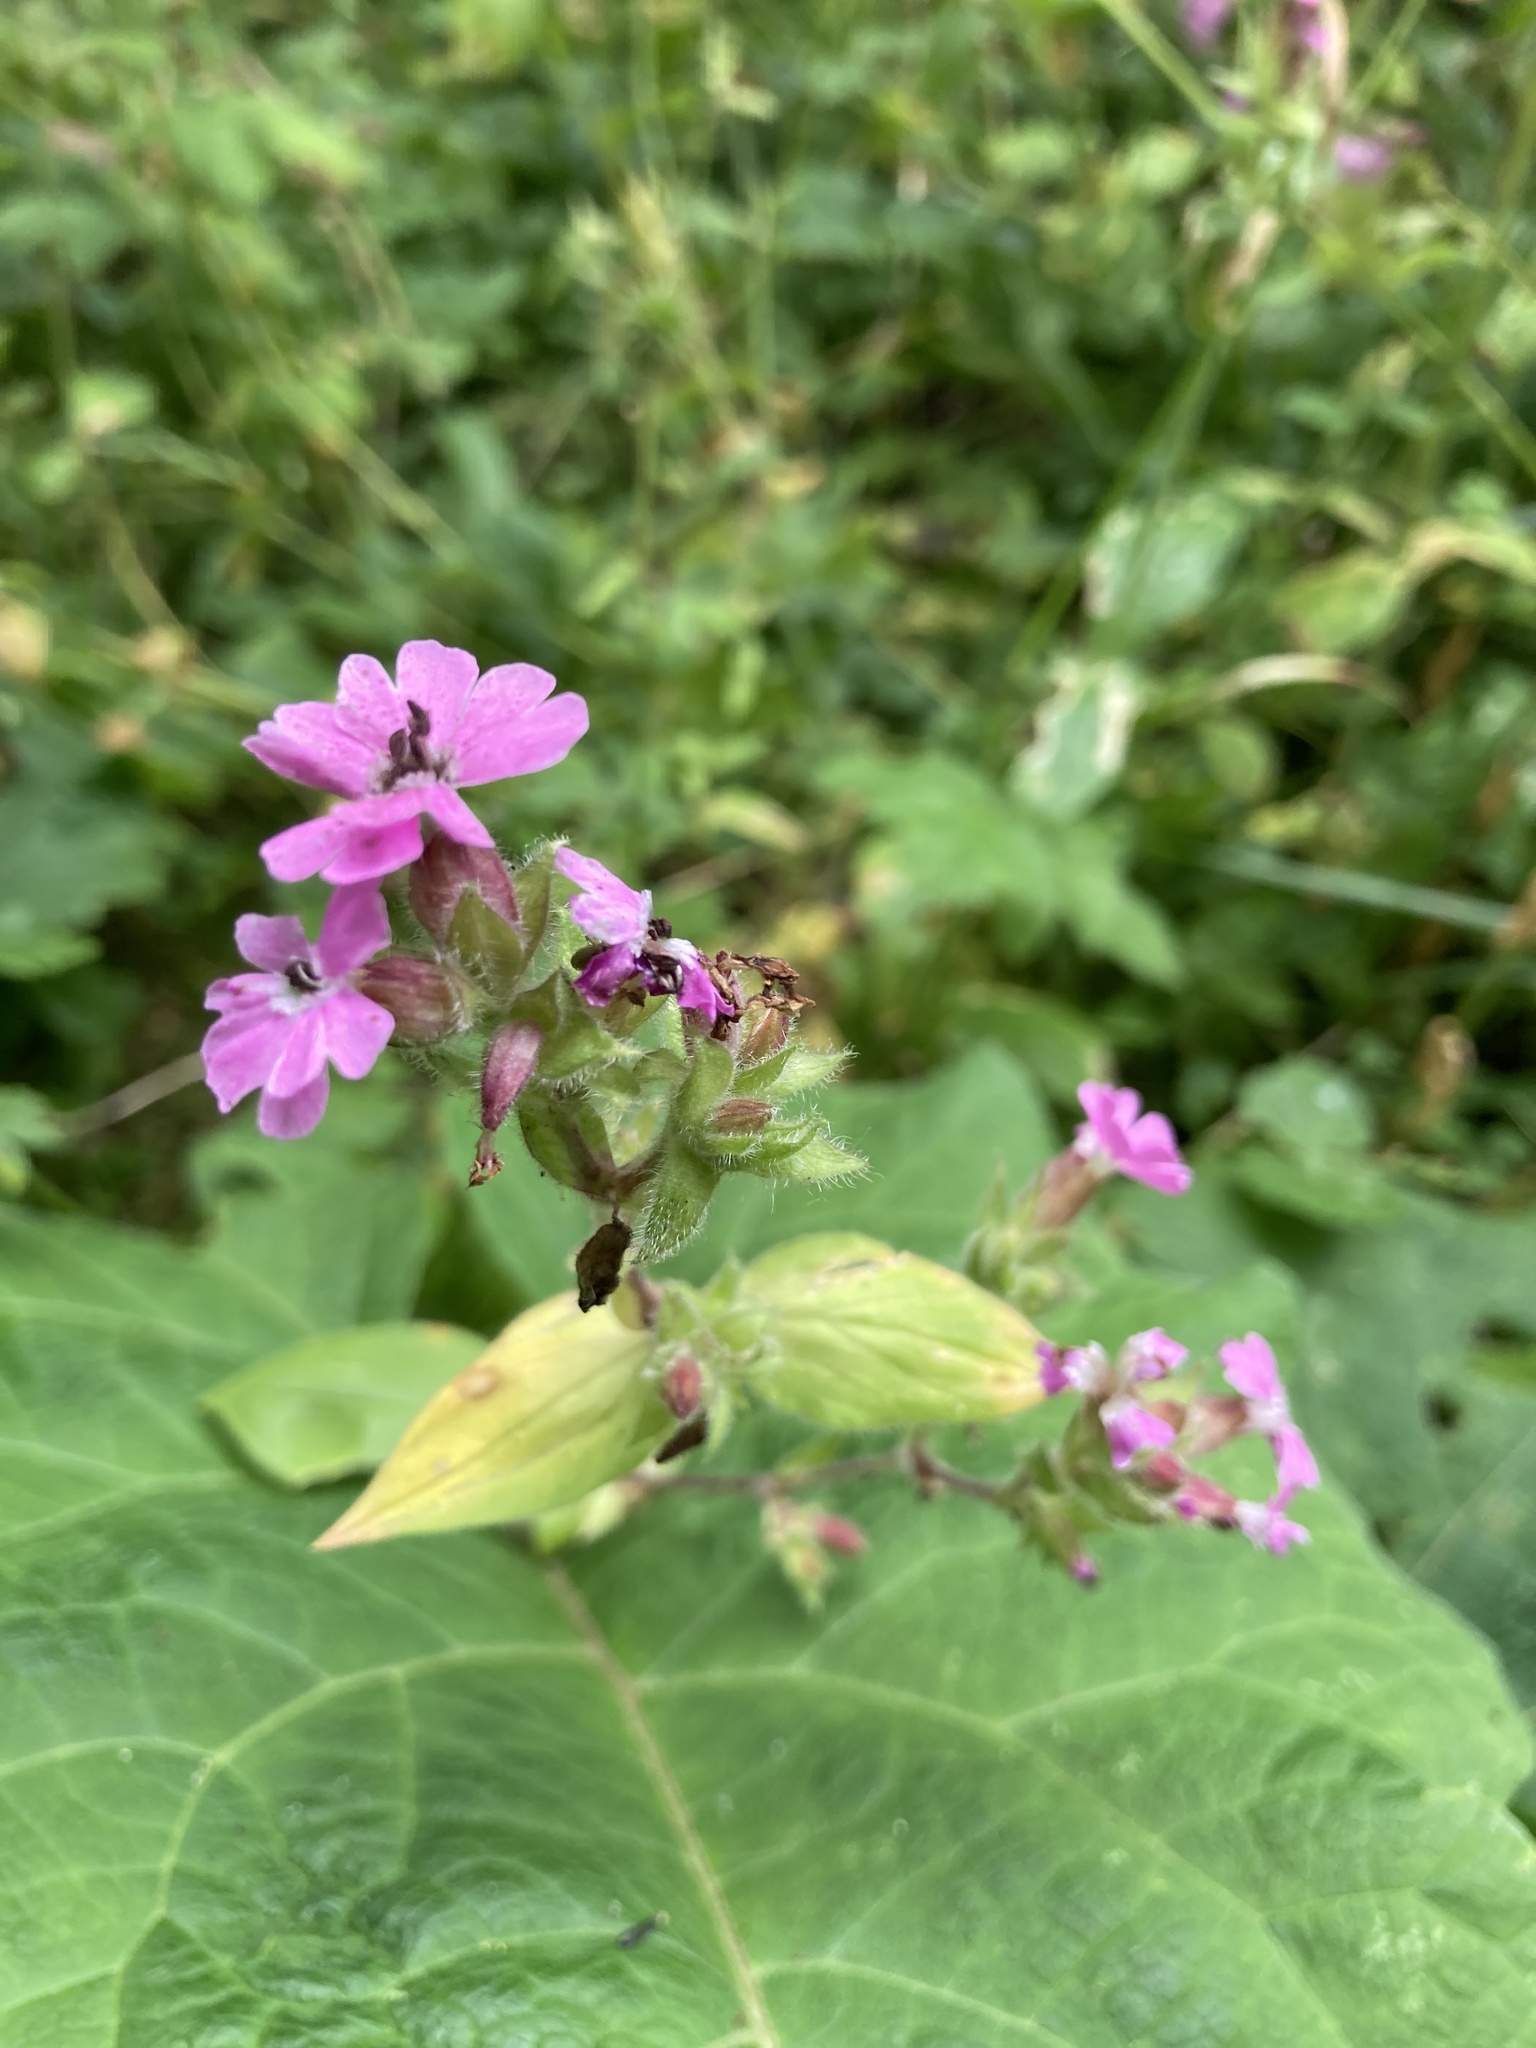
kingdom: Plantae
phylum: Tracheophyta
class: Magnoliopsida
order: Caryophyllales
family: Caryophyllaceae
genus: Silene
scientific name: Silene dioica
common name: Red campion
